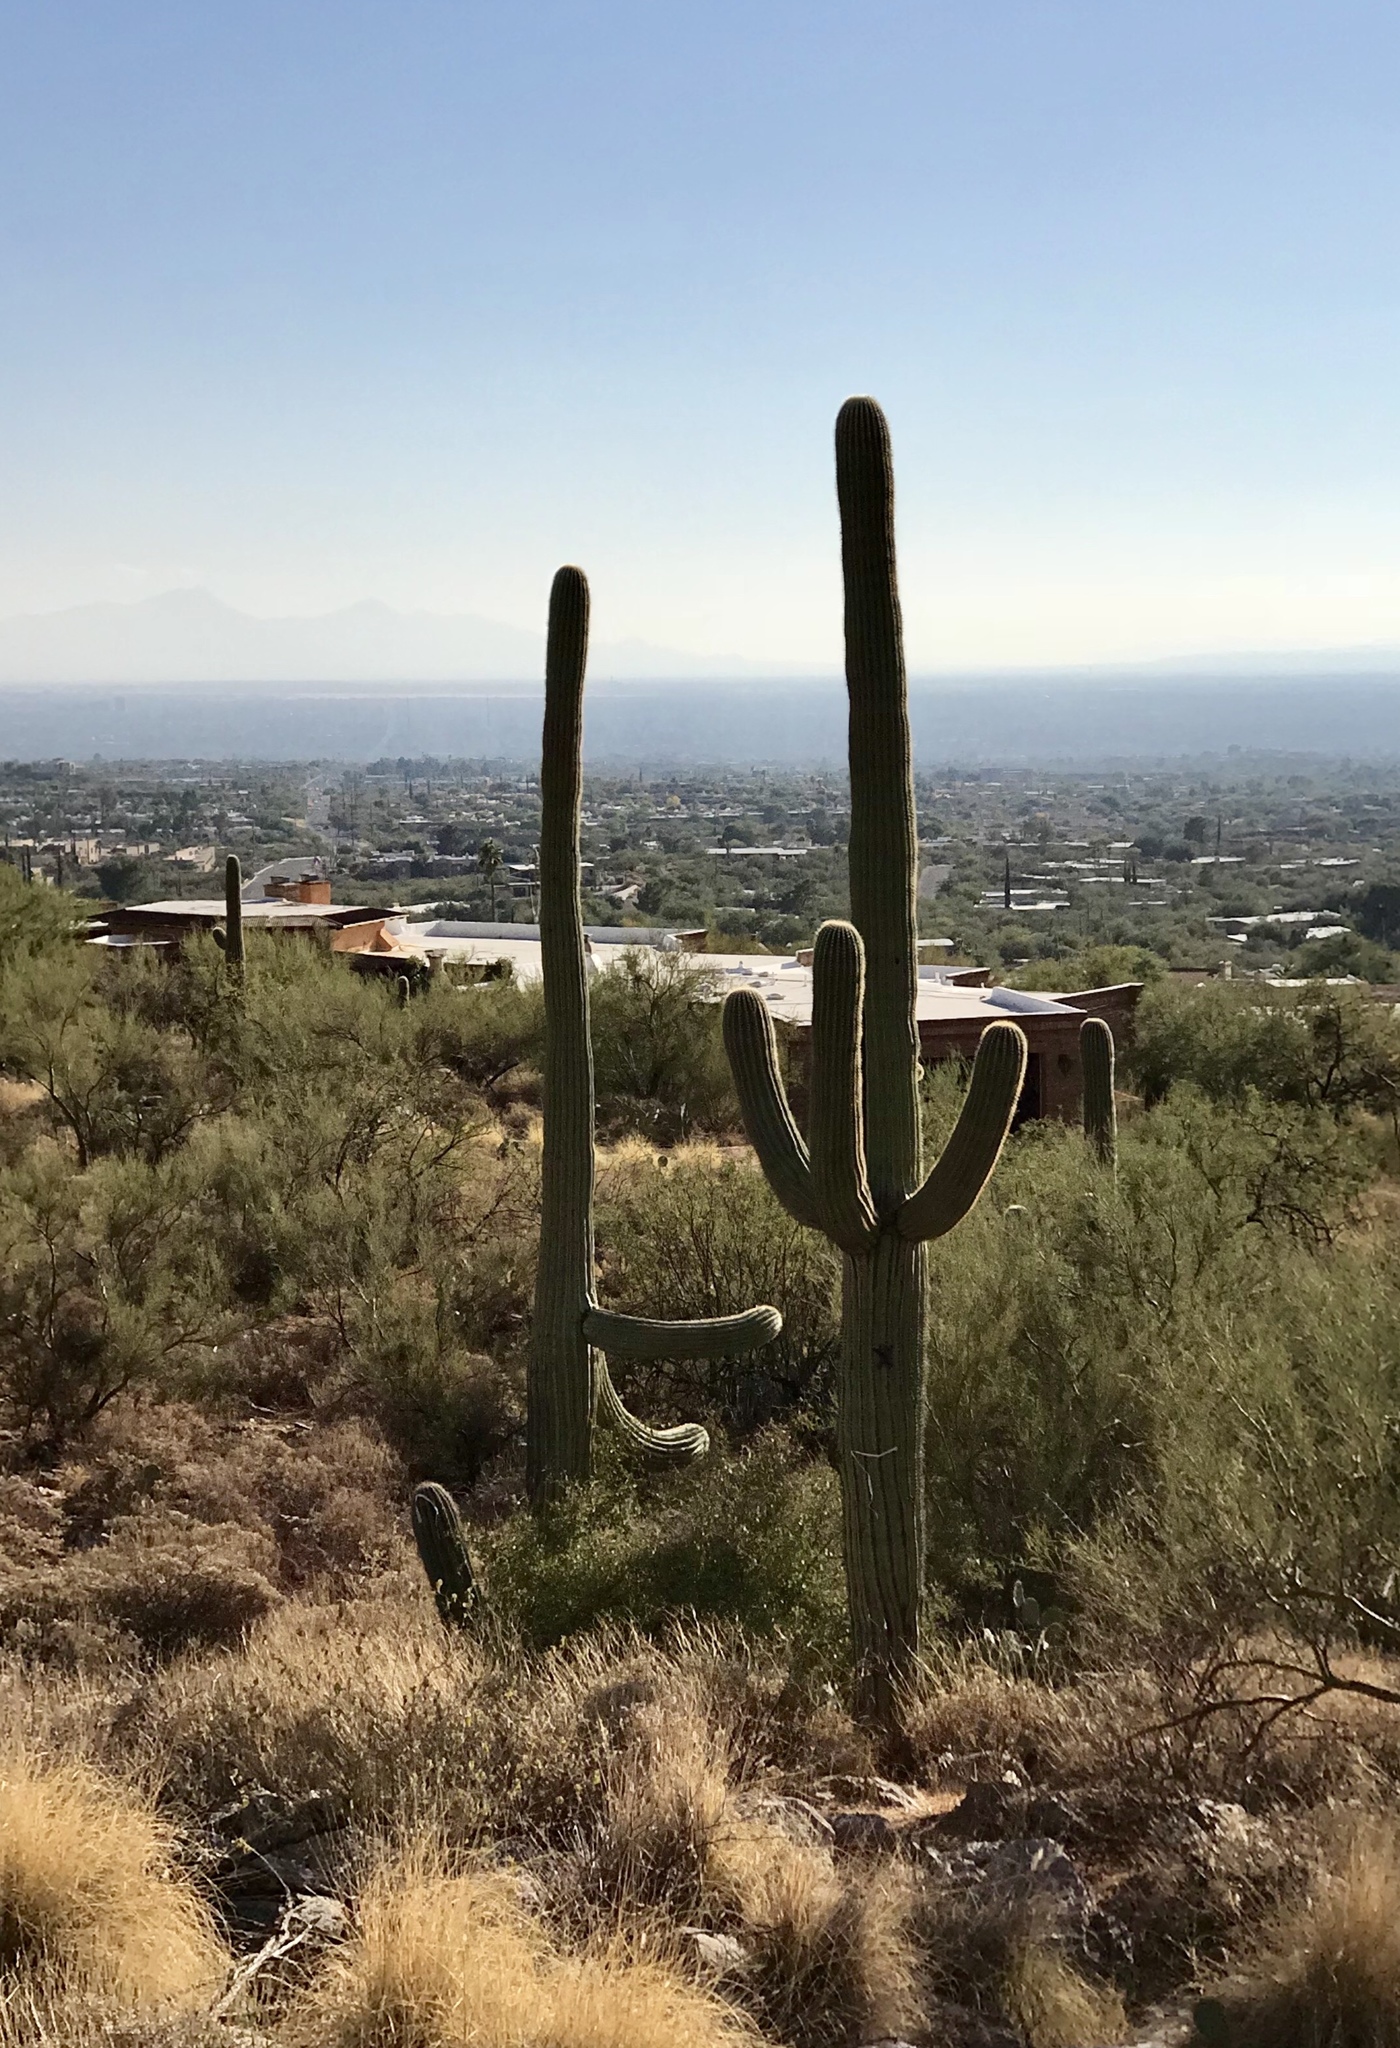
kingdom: Plantae
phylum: Tracheophyta
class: Magnoliopsida
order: Caryophyllales
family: Cactaceae
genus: Carnegiea
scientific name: Carnegiea gigantea
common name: Saguaro
